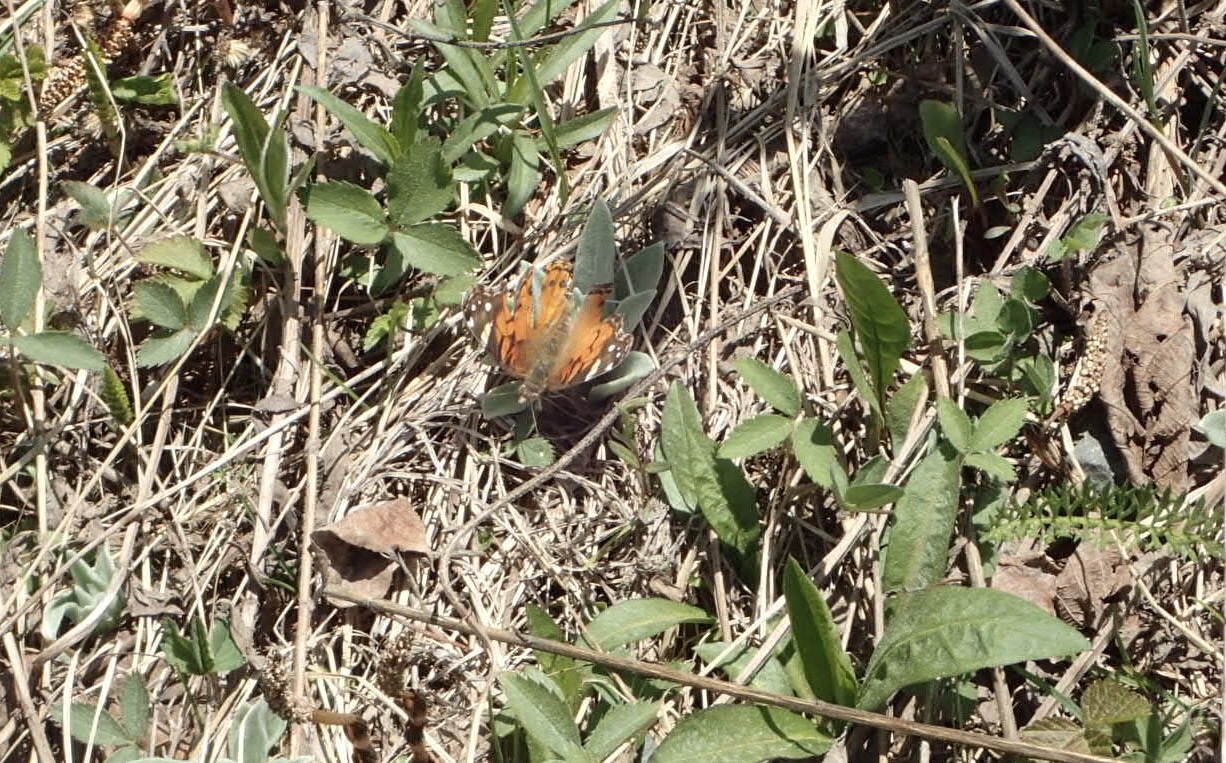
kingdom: Animalia
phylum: Arthropoda
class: Insecta
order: Lepidoptera
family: Nymphalidae
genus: Vanessa
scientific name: Vanessa virginiensis
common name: American lady
